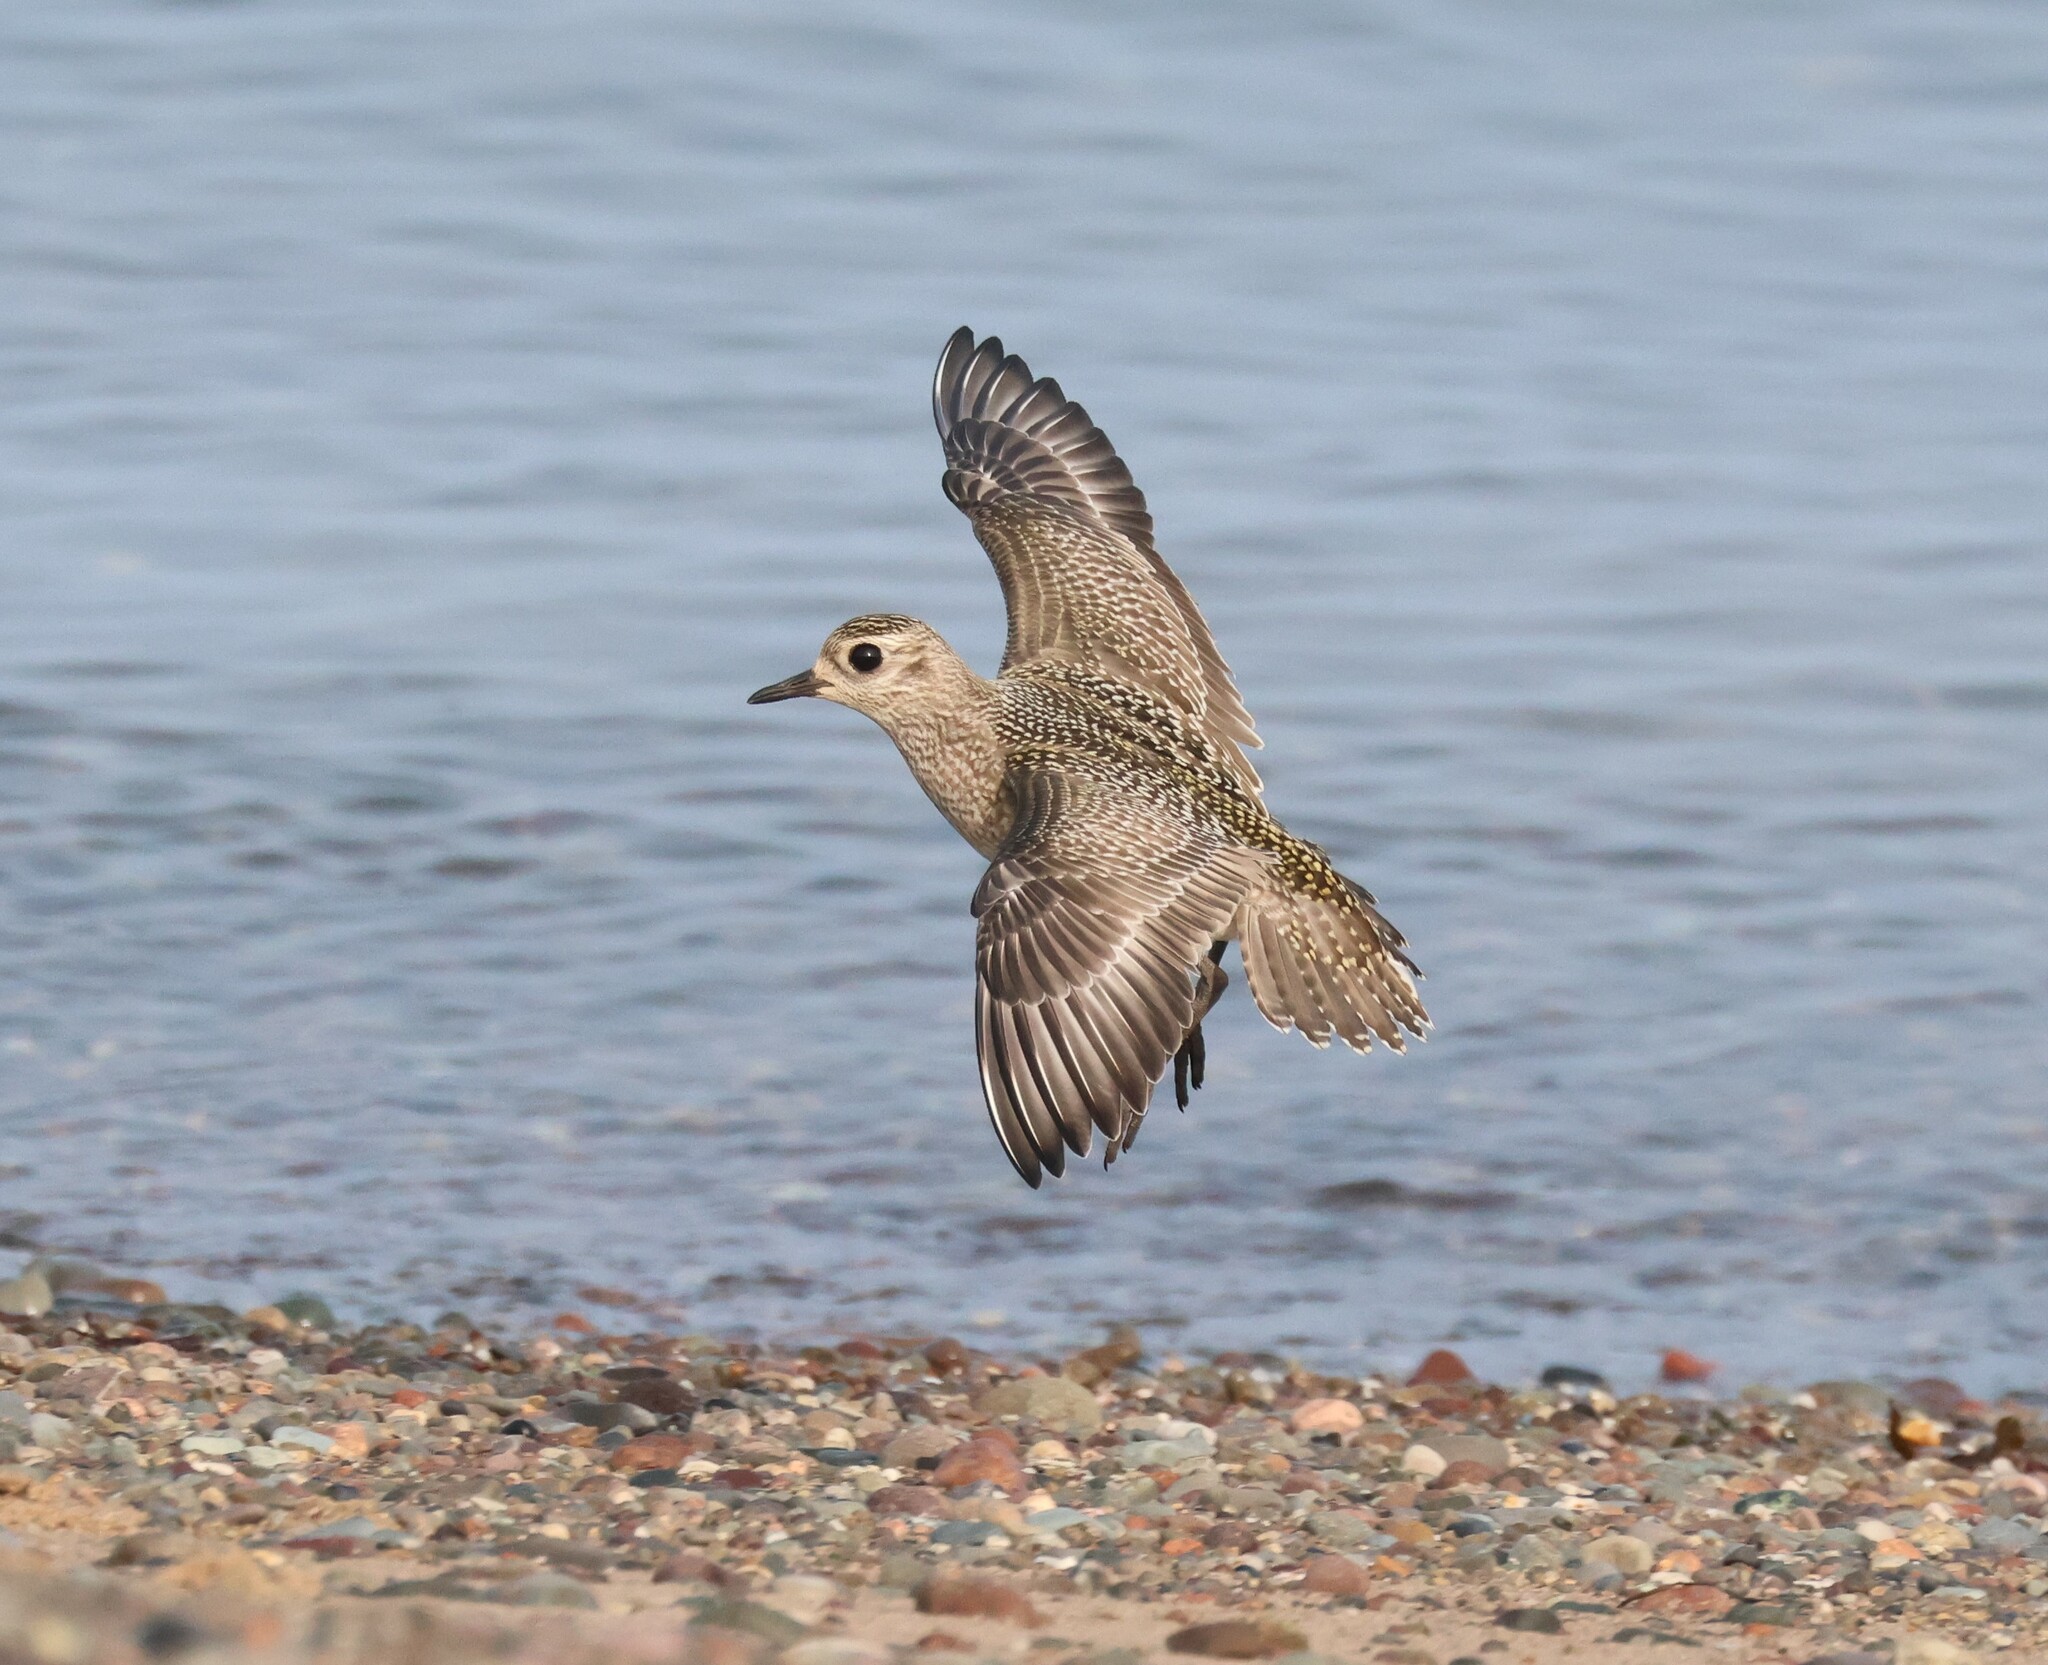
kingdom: Animalia
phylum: Chordata
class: Aves
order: Charadriiformes
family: Charadriidae
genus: Pluvialis
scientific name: Pluvialis dominica
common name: American golden plover
